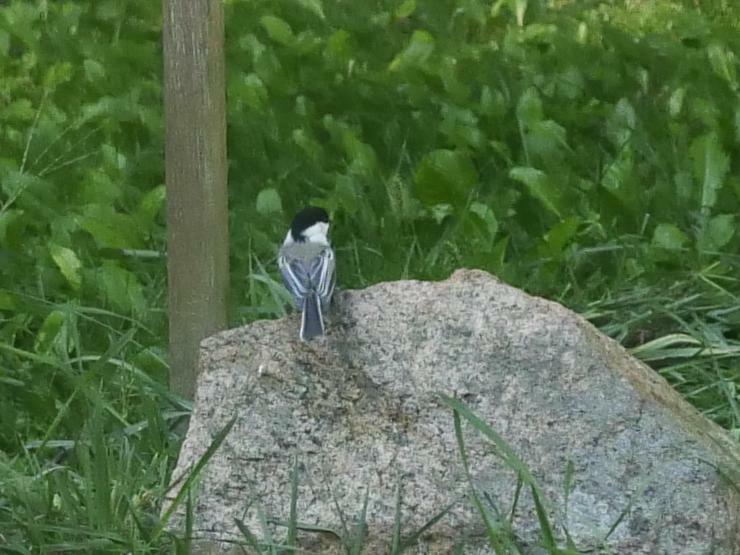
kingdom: Animalia
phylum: Chordata
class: Aves
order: Passeriformes
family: Paridae
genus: Poecile
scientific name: Poecile atricapillus
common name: Black-capped chickadee
